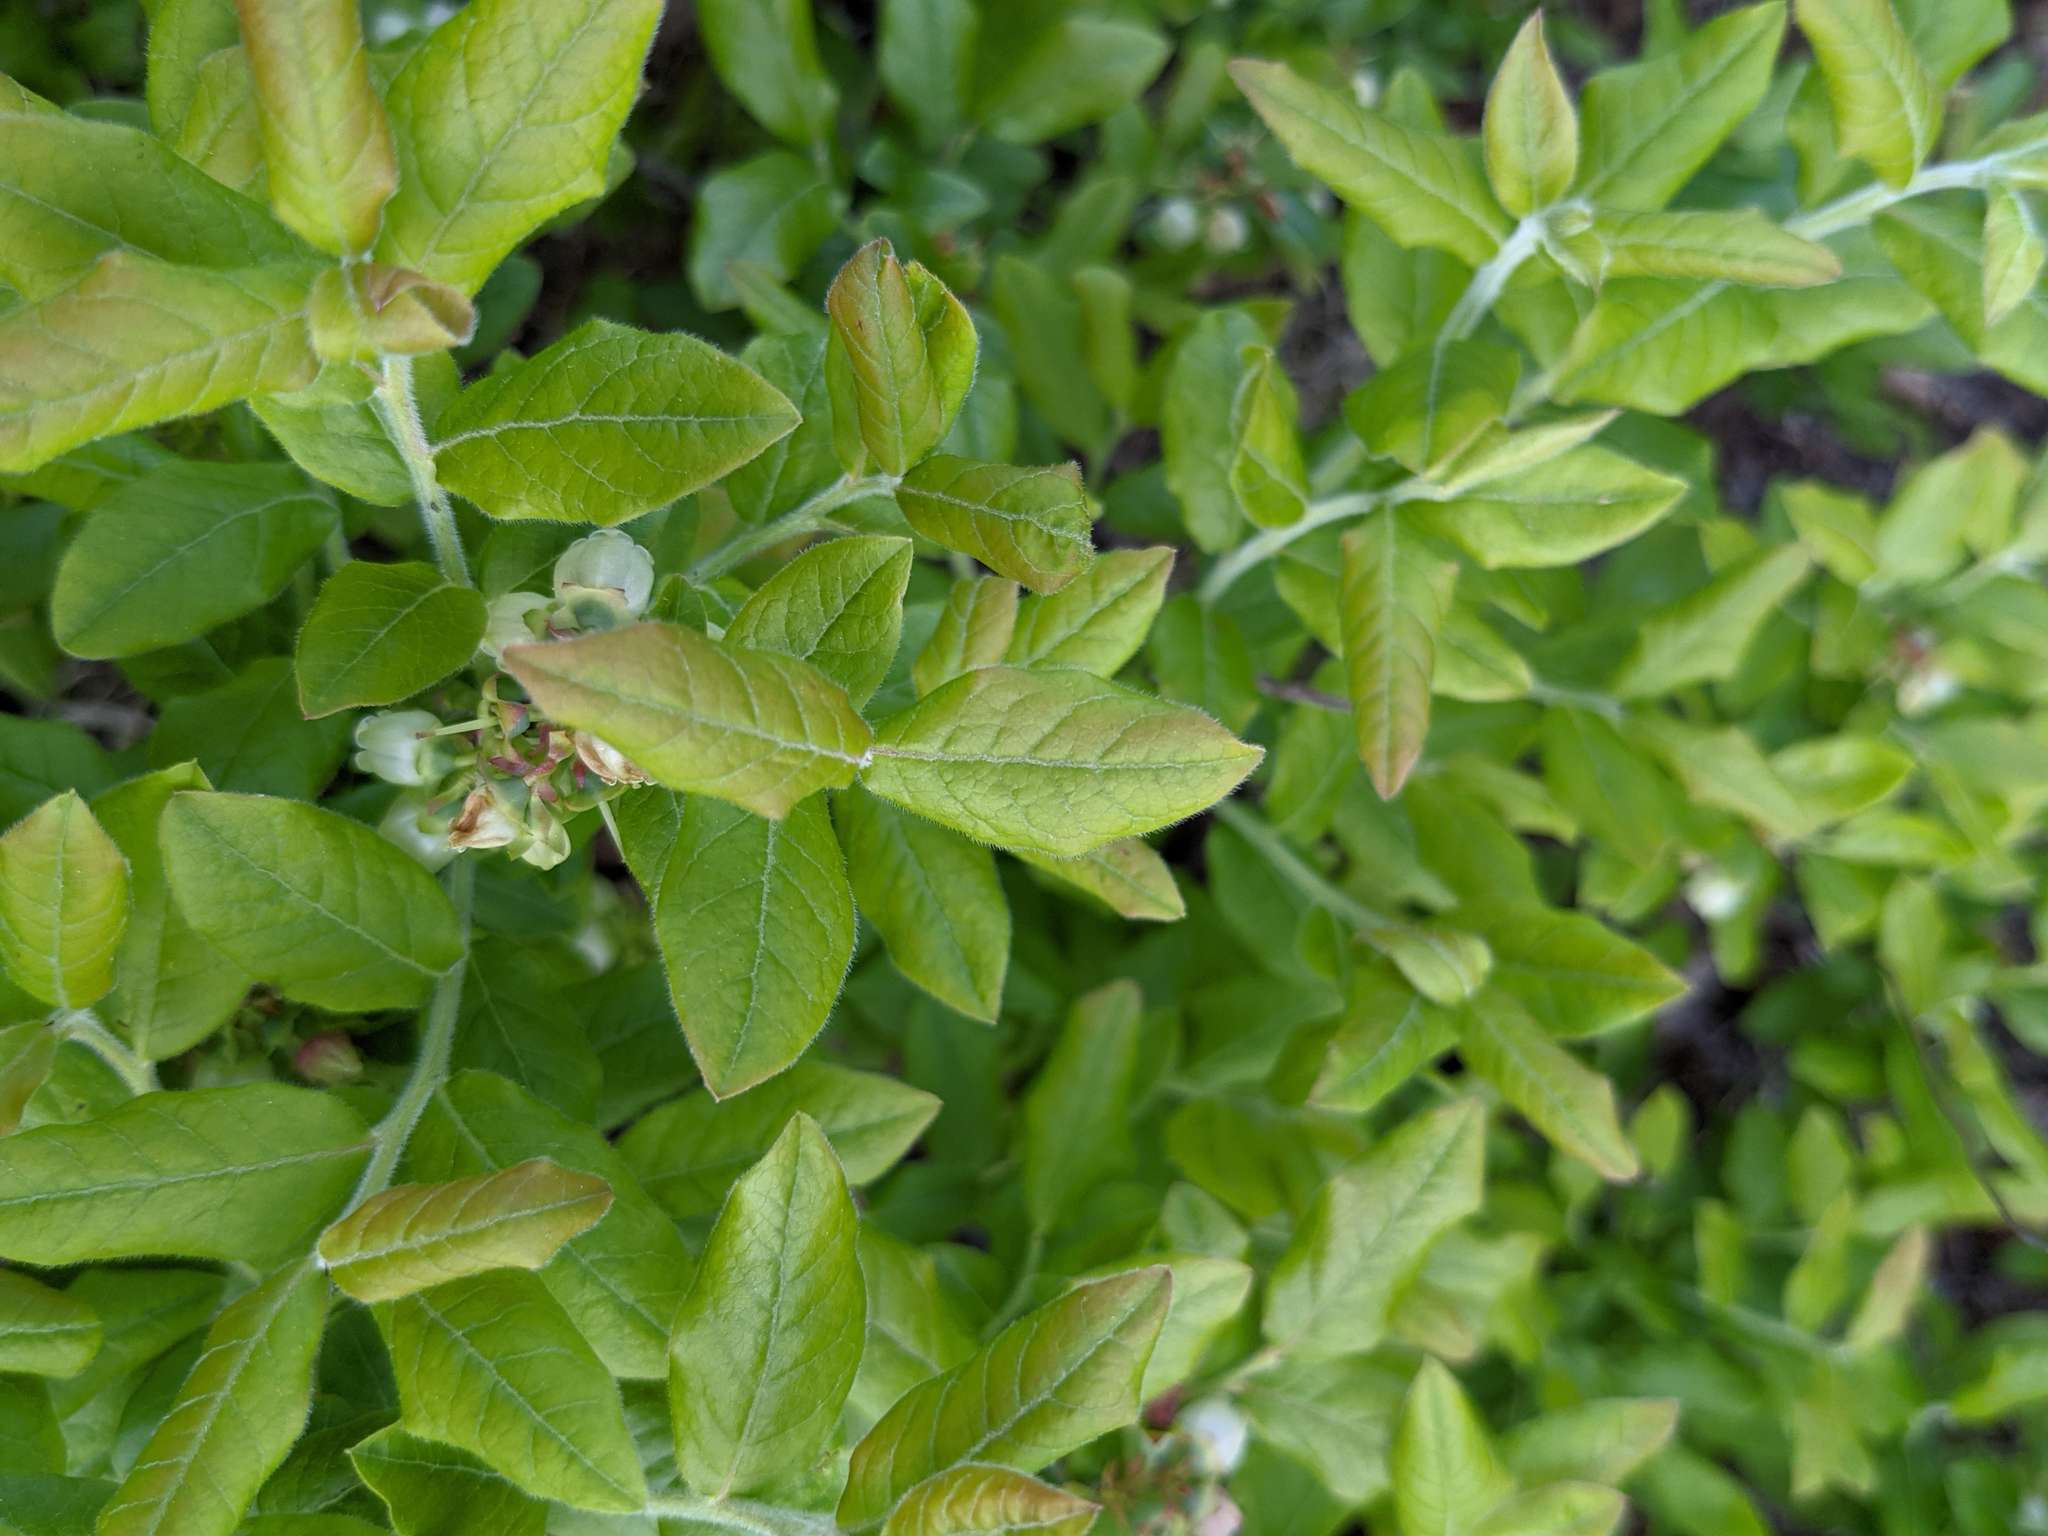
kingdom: Plantae
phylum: Tracheophyta
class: Magnoliopsida
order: Ericales
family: Ericaceae
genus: Vaccinium
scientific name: Vaccinium myrtilloides
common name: Canada blueberry
